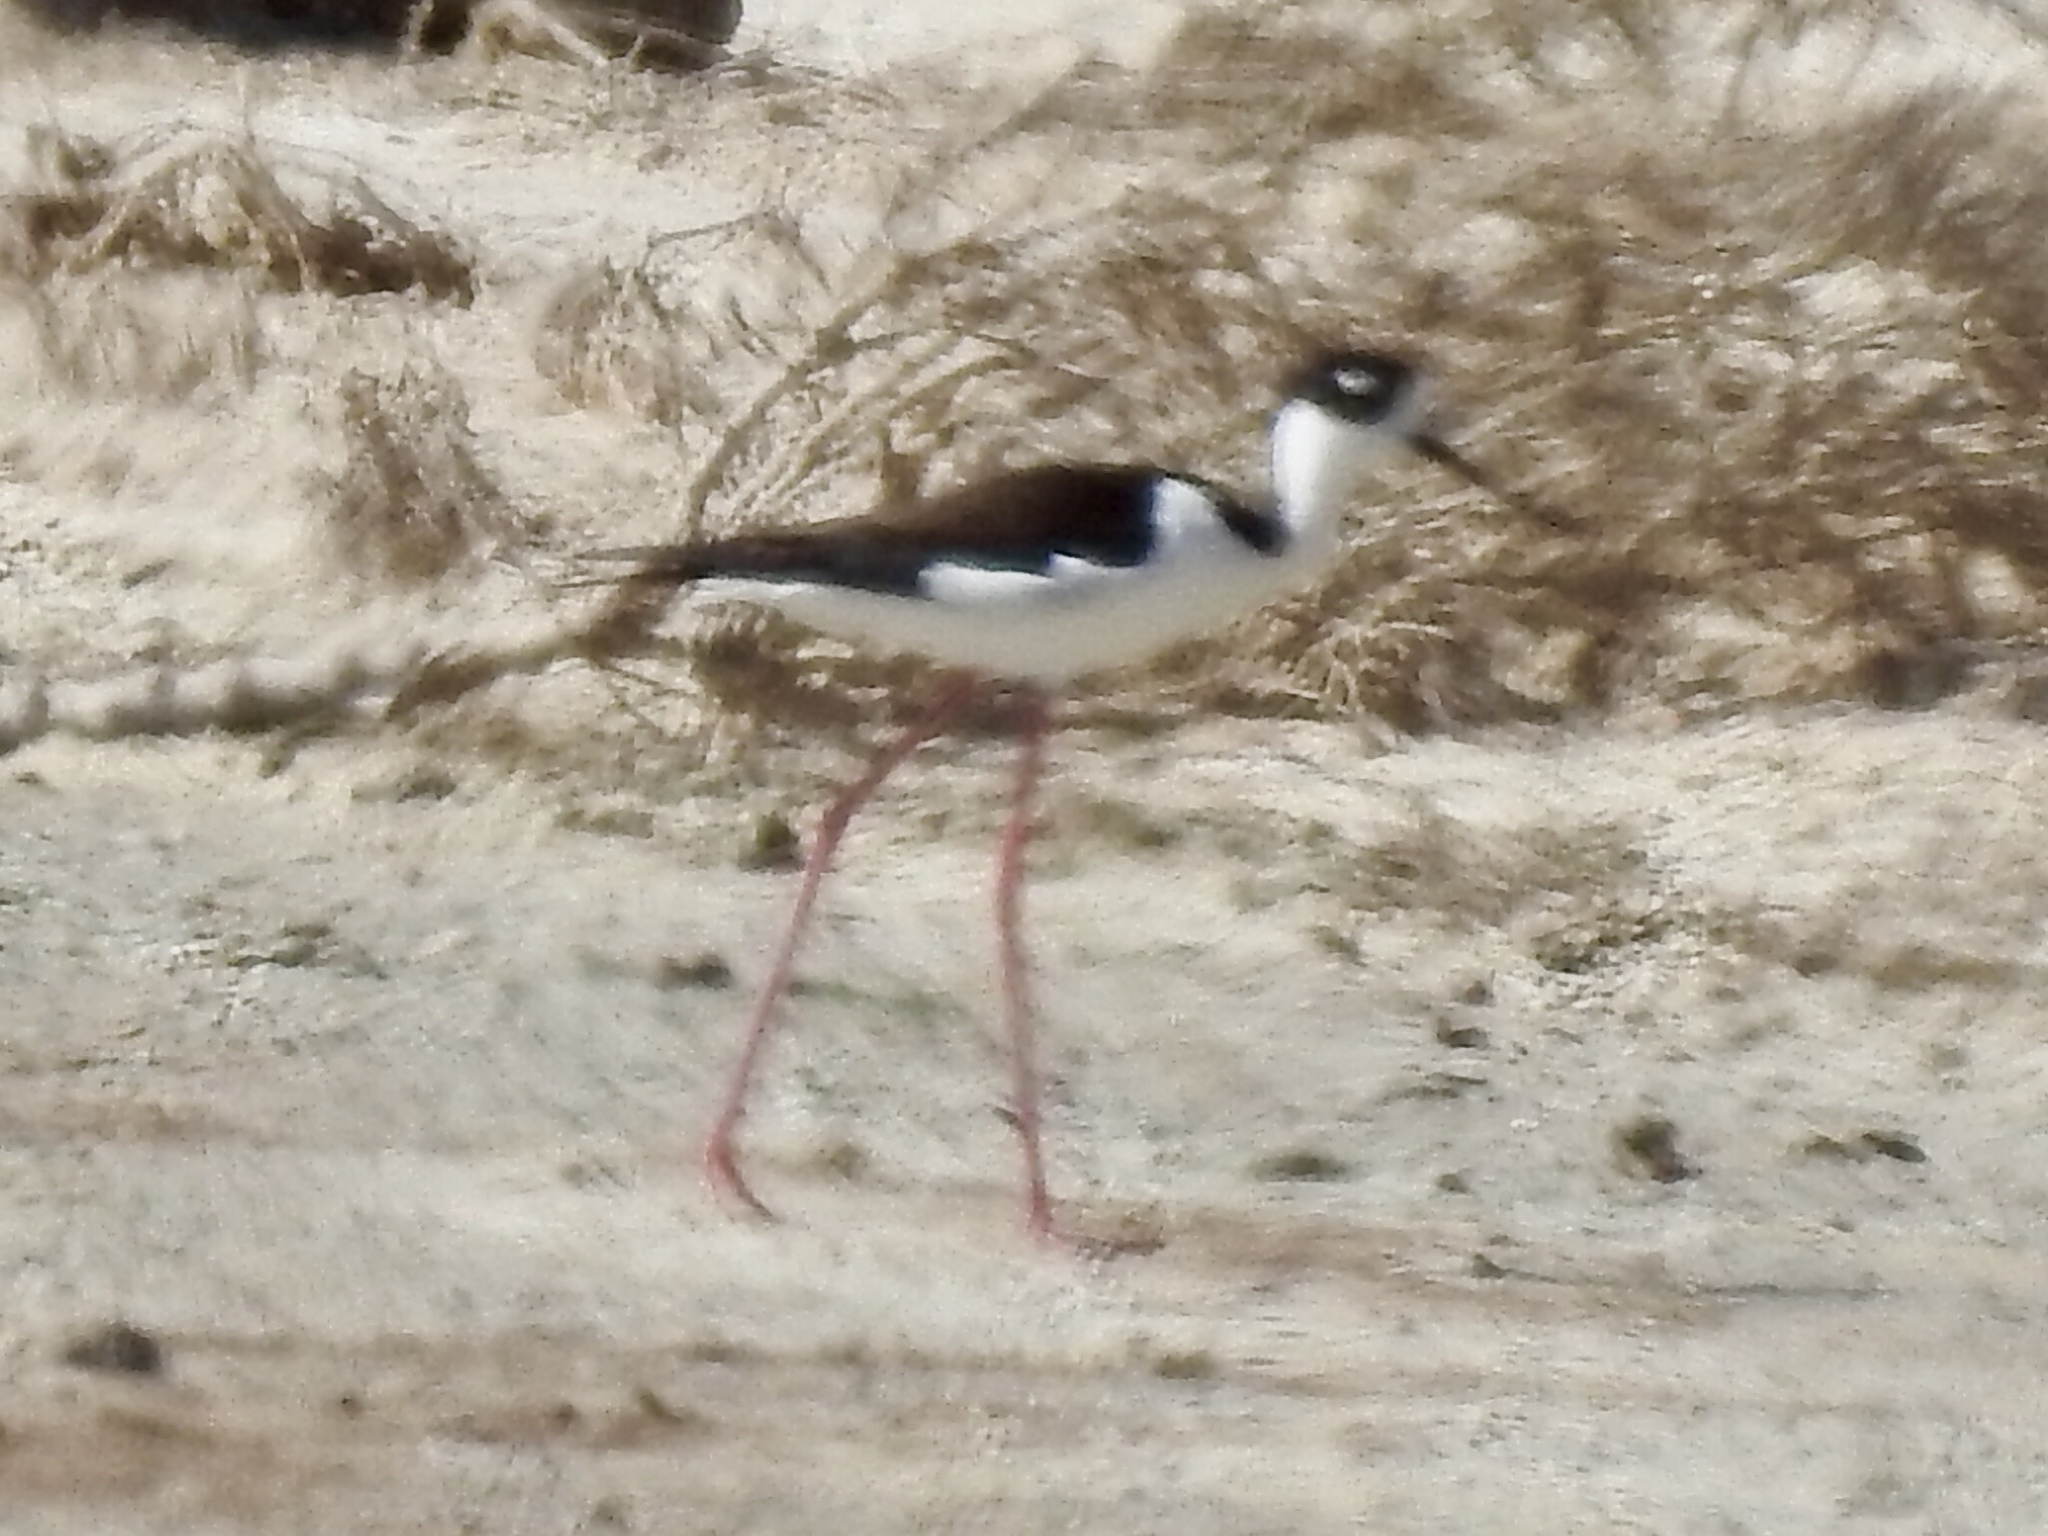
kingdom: Animalia
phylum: Chordata
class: Aves
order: Charadriiformes
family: Recurvirostridae
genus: Himantopus
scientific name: Himantopus mexicanus
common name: Black-necked stilt
